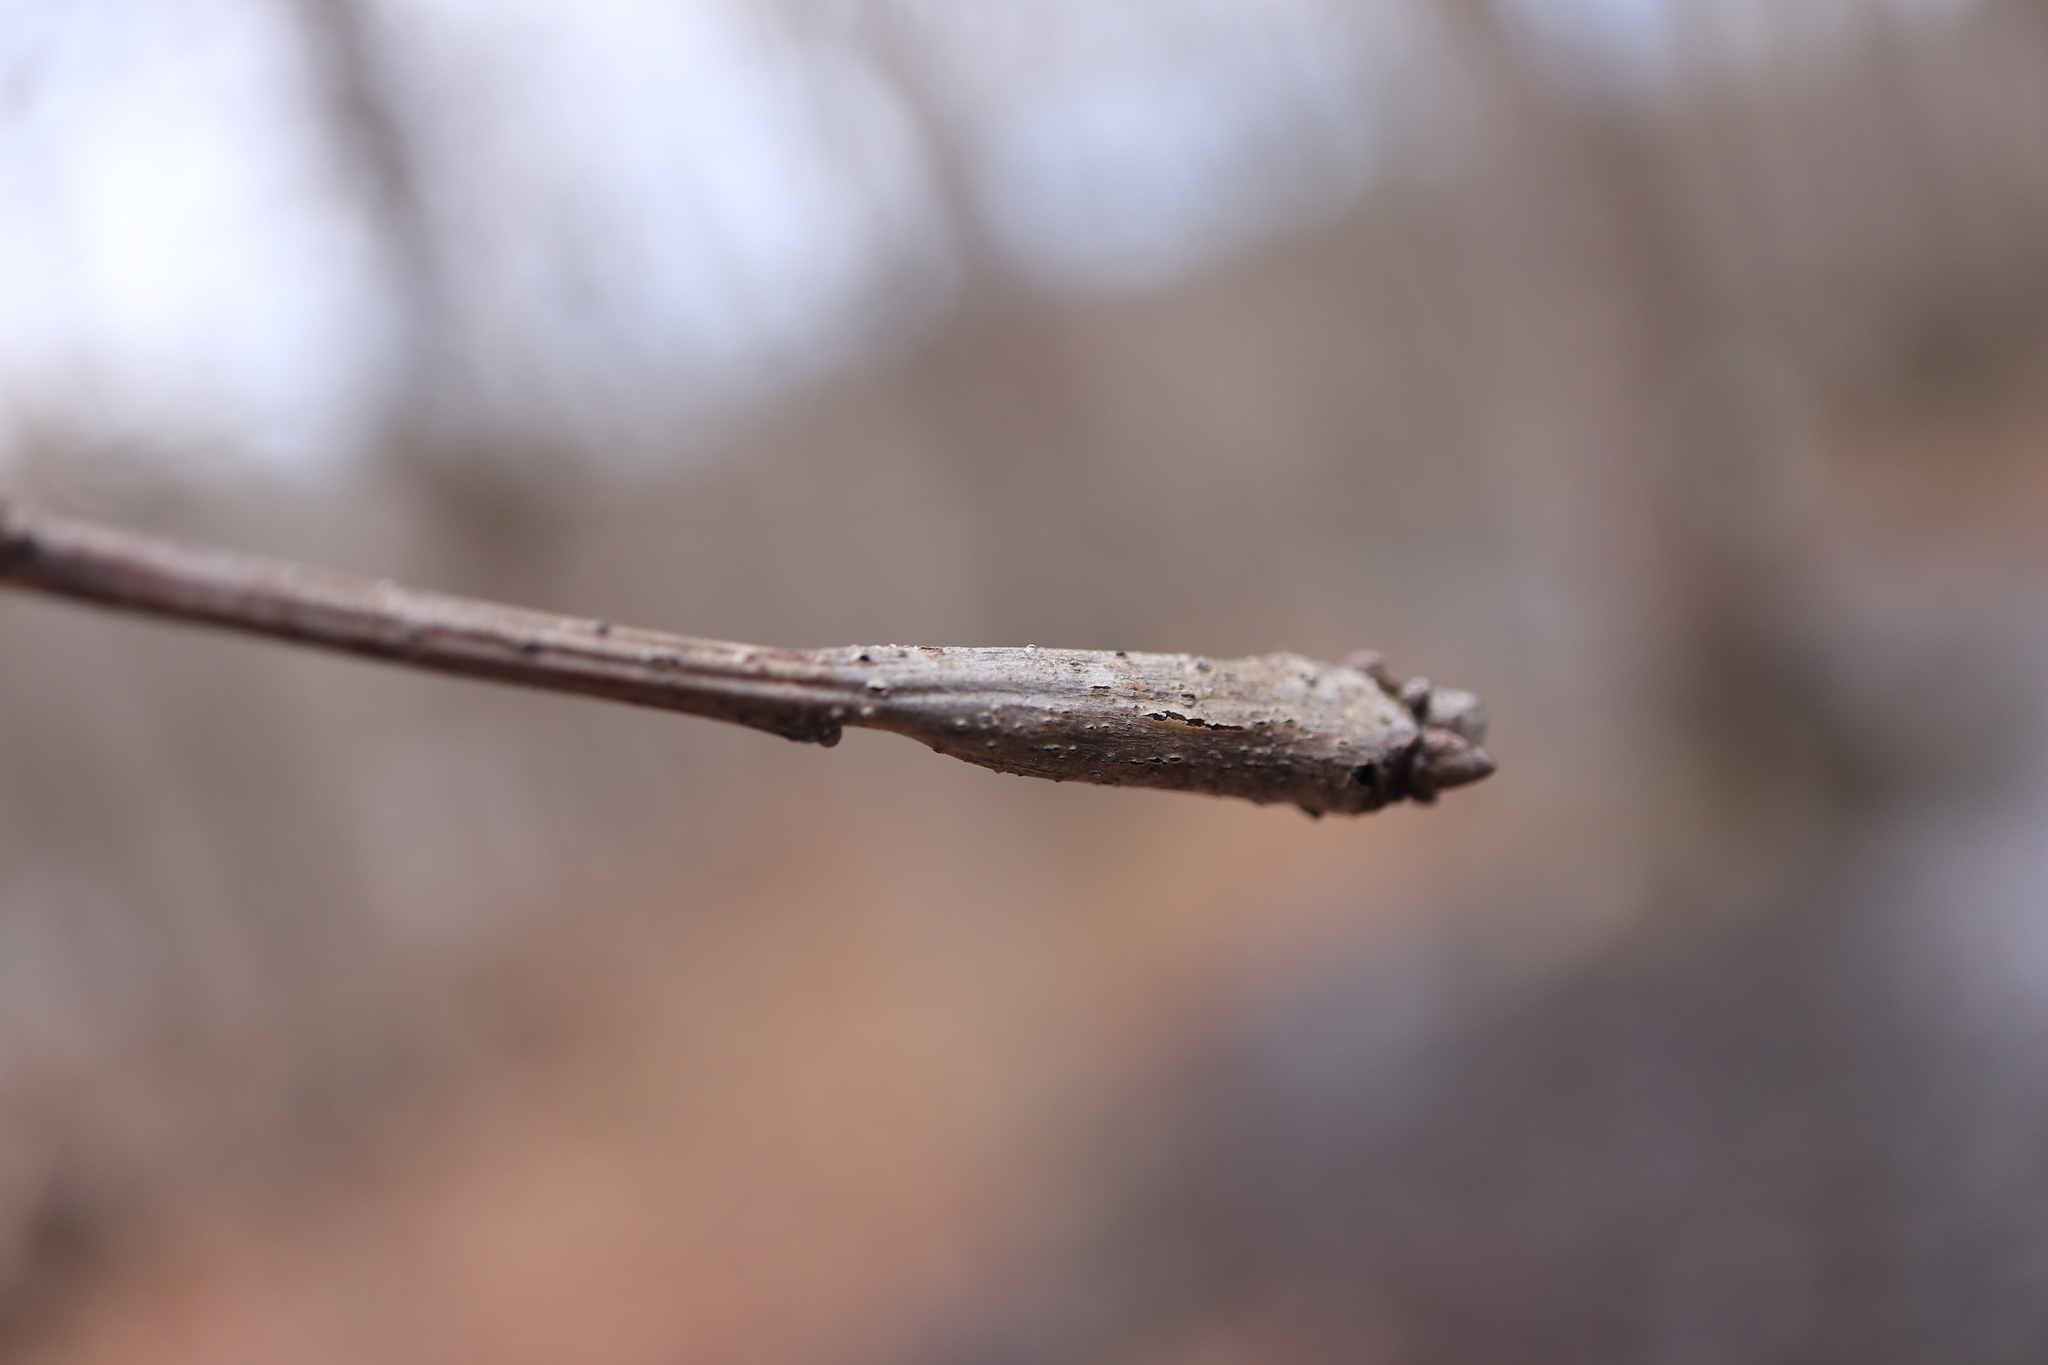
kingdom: Animalia
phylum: Arthropoda
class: Insecta
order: Hymenoptera
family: Cynipidae
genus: Neuroterus
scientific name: Neuroterus quercusbaccarum
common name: Common spangle gall
